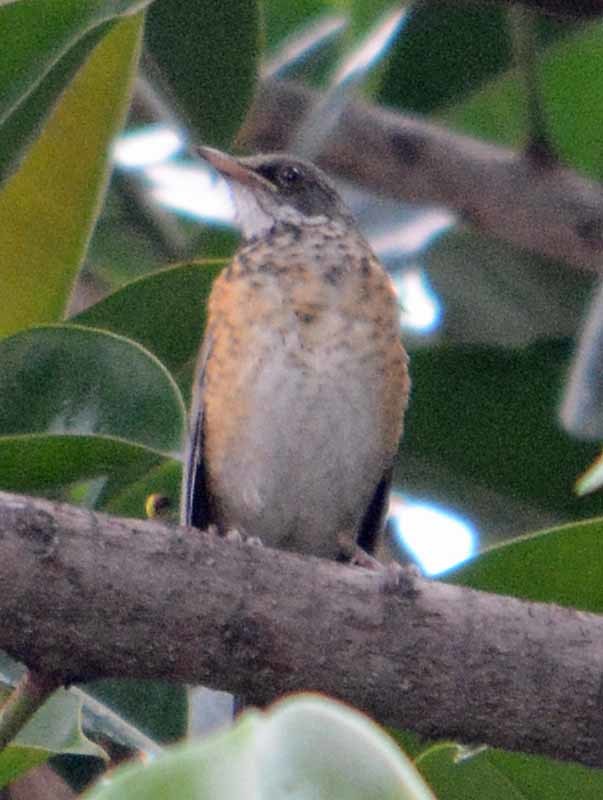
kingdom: Animalia
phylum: Chordata
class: Aves
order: Passeriformes
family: Turdidae
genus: Turdus
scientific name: Turdus rufopalliatus
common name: Rufous-backed robin
